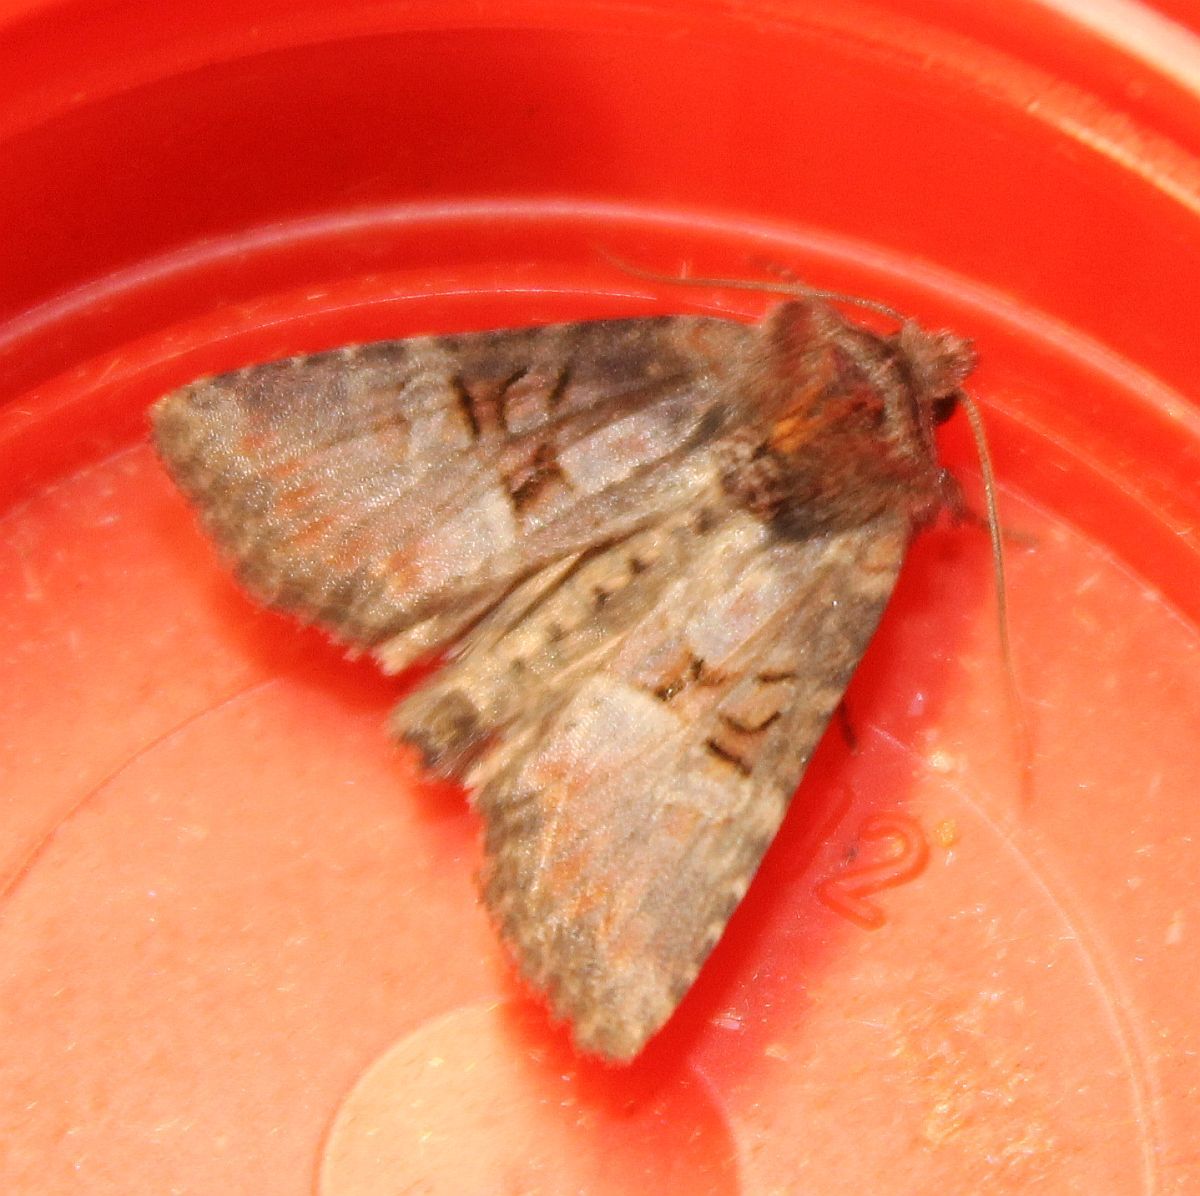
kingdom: Animalia
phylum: Arthropoda
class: Insecta
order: Lepidoptera
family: Noctuidae
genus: Litoligia
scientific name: Litoligia literosa
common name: Rosy minor
